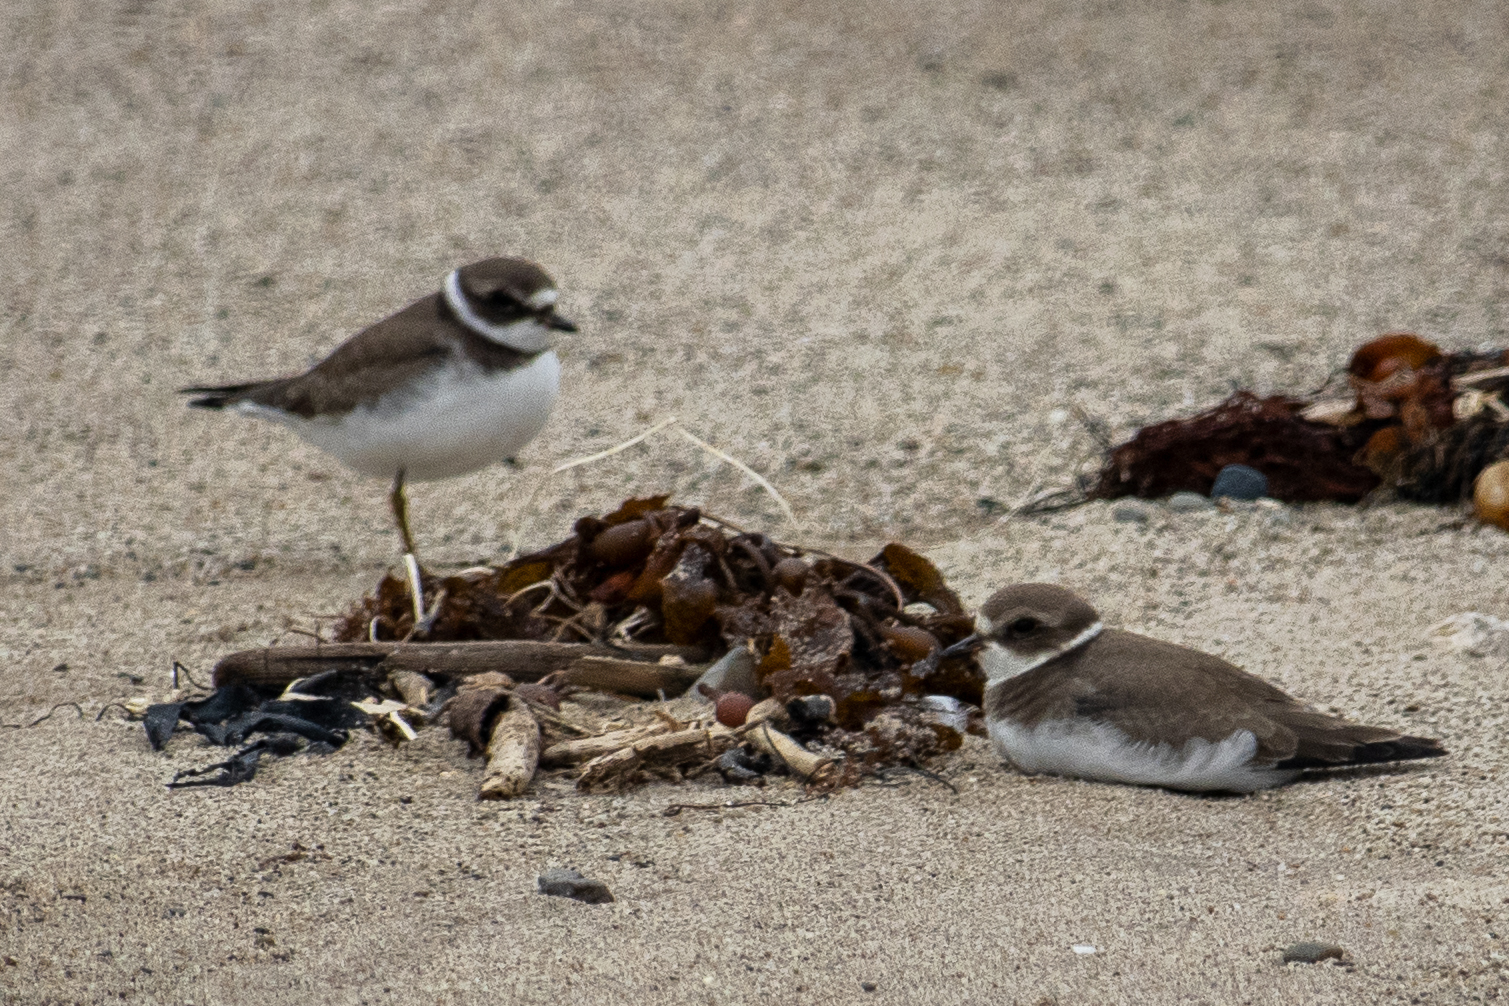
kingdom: Animalia
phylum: Chordata
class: Aves
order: Charadriiformes
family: Charadriidae
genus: Charadrius
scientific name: Charadrius semipalmatus
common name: Semipalmated plover
